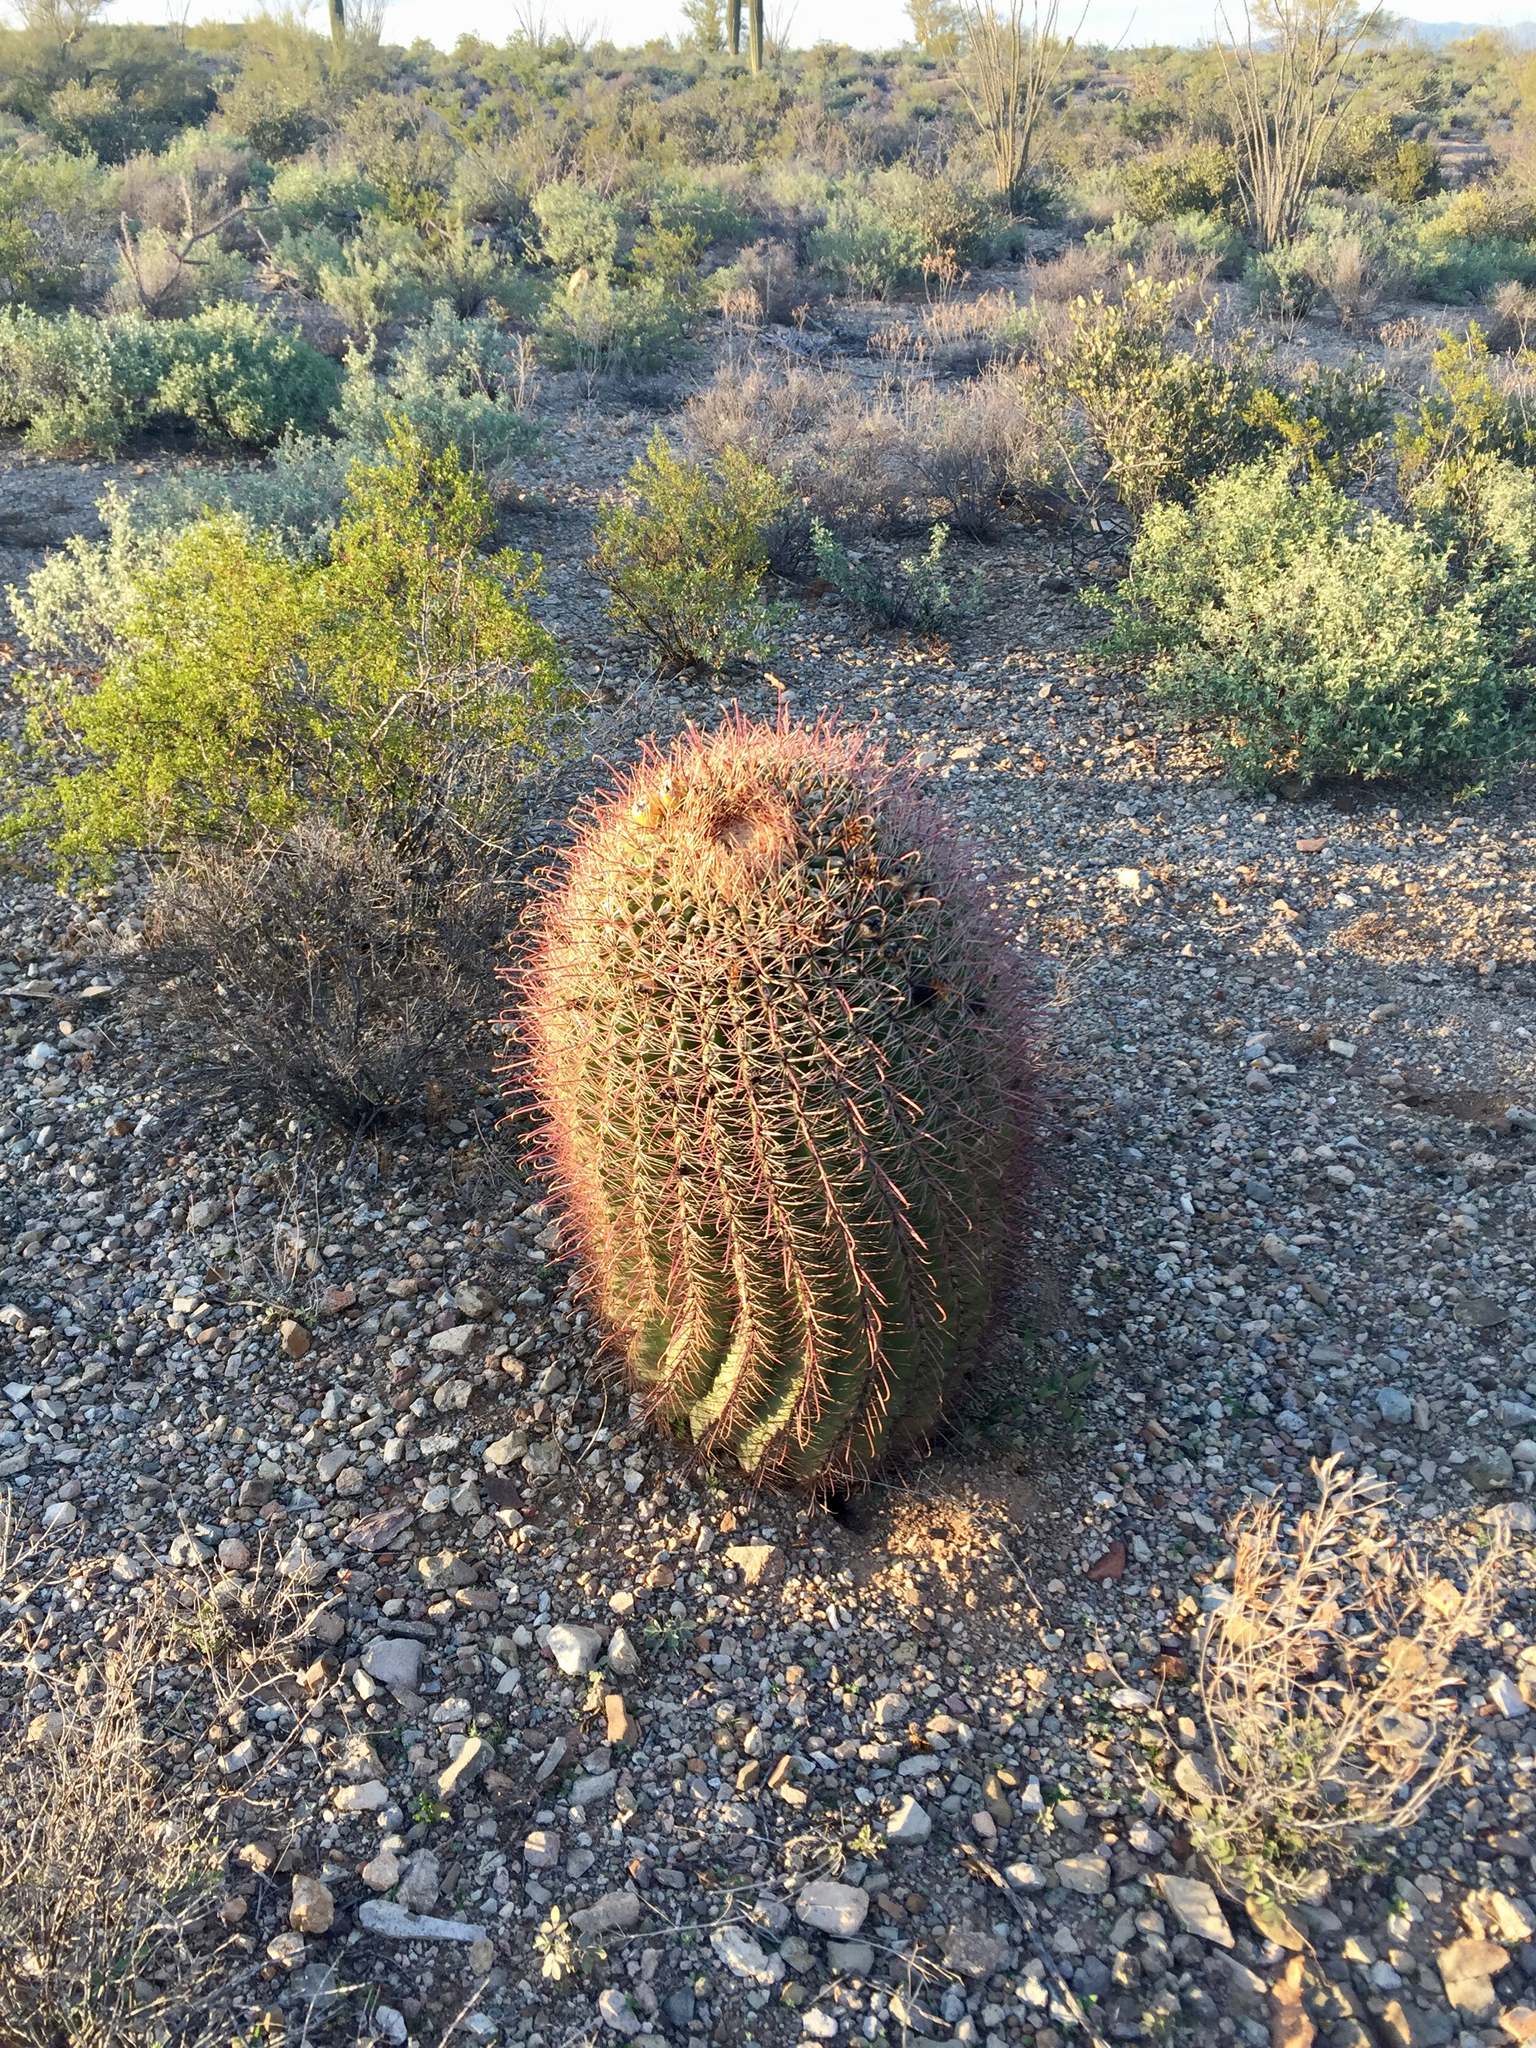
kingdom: Plantae
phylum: Tracheophyta
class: Magnoliopsida
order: Caryophyllales
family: Cactaceae
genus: Ferocactus
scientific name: Ferocactus wislizeni
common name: Candy barrel cactus
